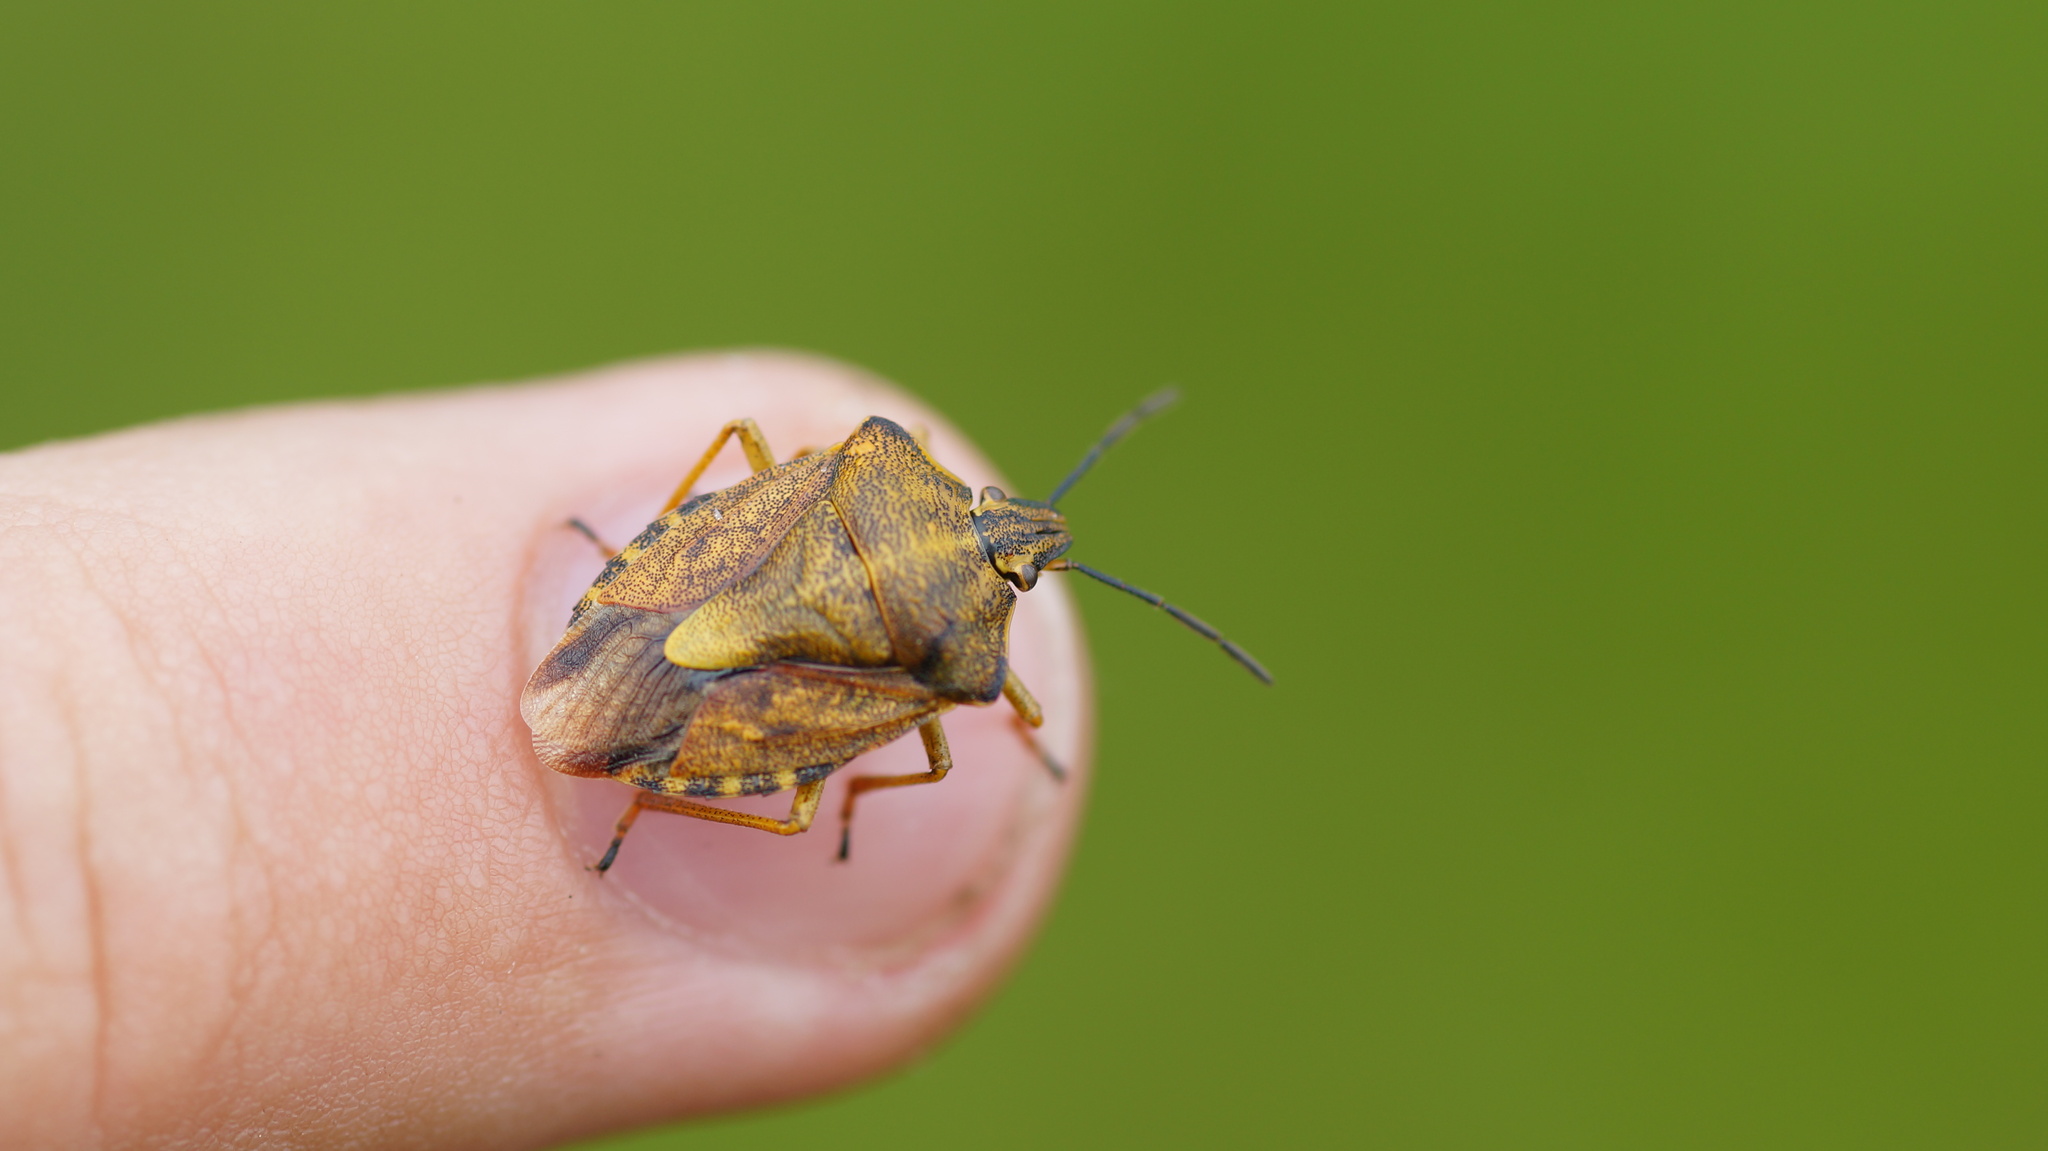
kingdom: Animalia
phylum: Arthropoda
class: Insecta
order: Hemiptera
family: Pentatomidae
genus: Carpocoris
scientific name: Carpocoris purpureipennis
